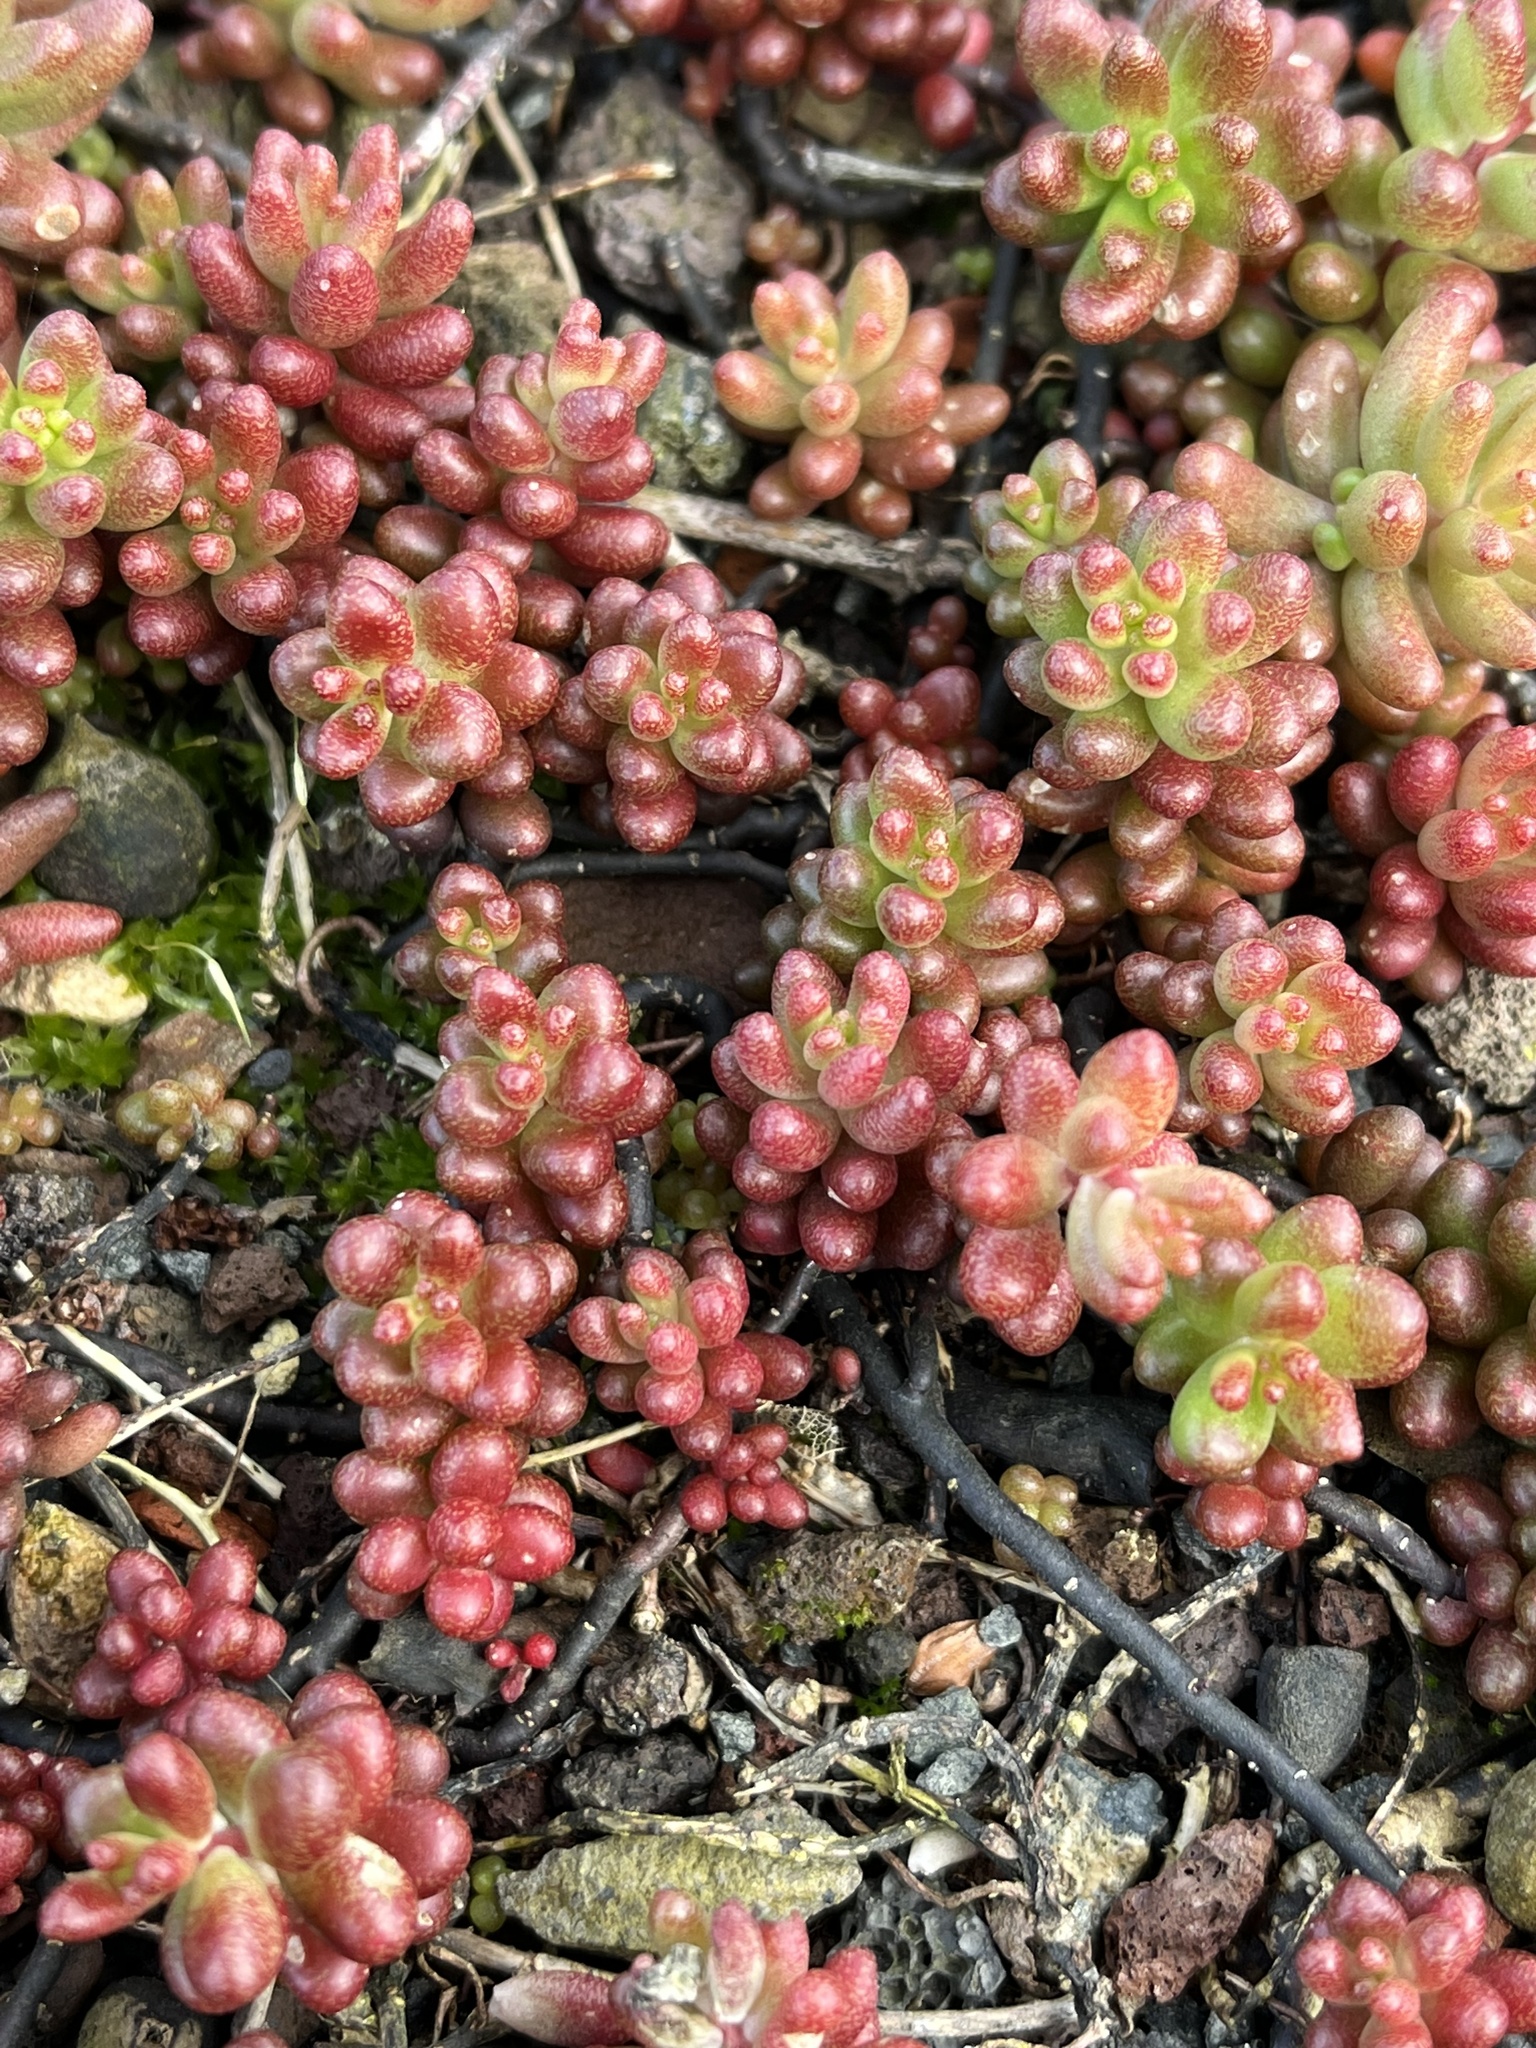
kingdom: Plantae
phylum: Tracheophyta
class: Magnoliopsida
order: Saxifragales
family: Crassulaceae
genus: Sedum
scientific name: Sedum album
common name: White stonecrop
